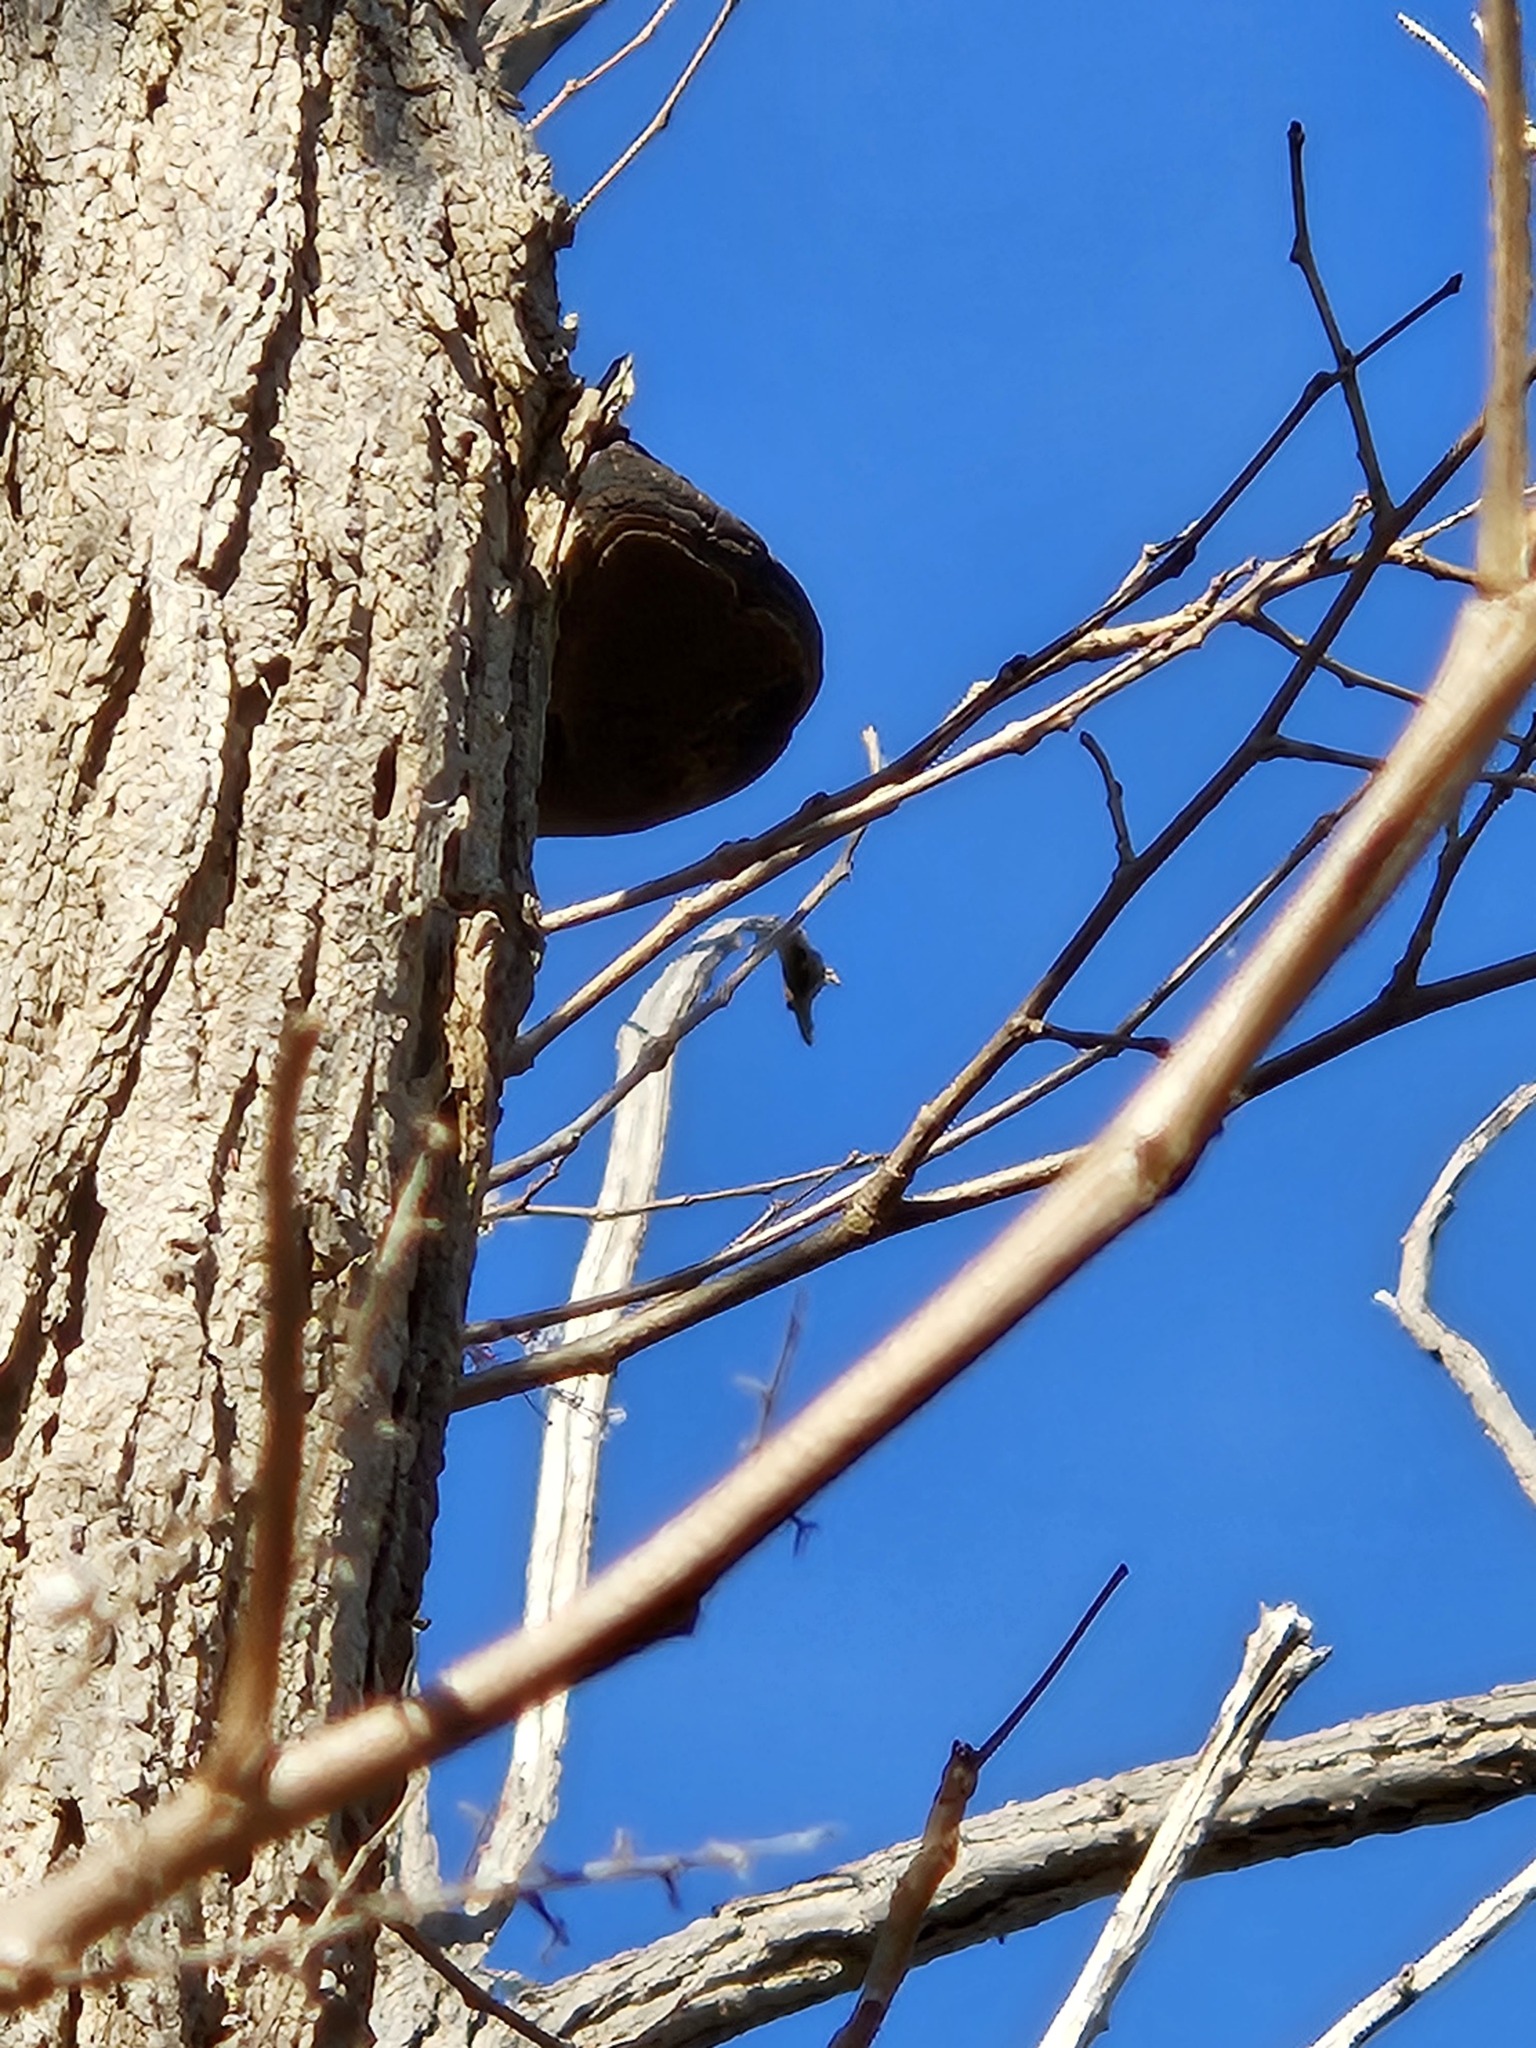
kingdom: Fungi
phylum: Basidiomycota
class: Agaricomycetes
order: Hymenochaetales
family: Hymenochaetaceae
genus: Phellinus
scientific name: Phellinus robiniae
